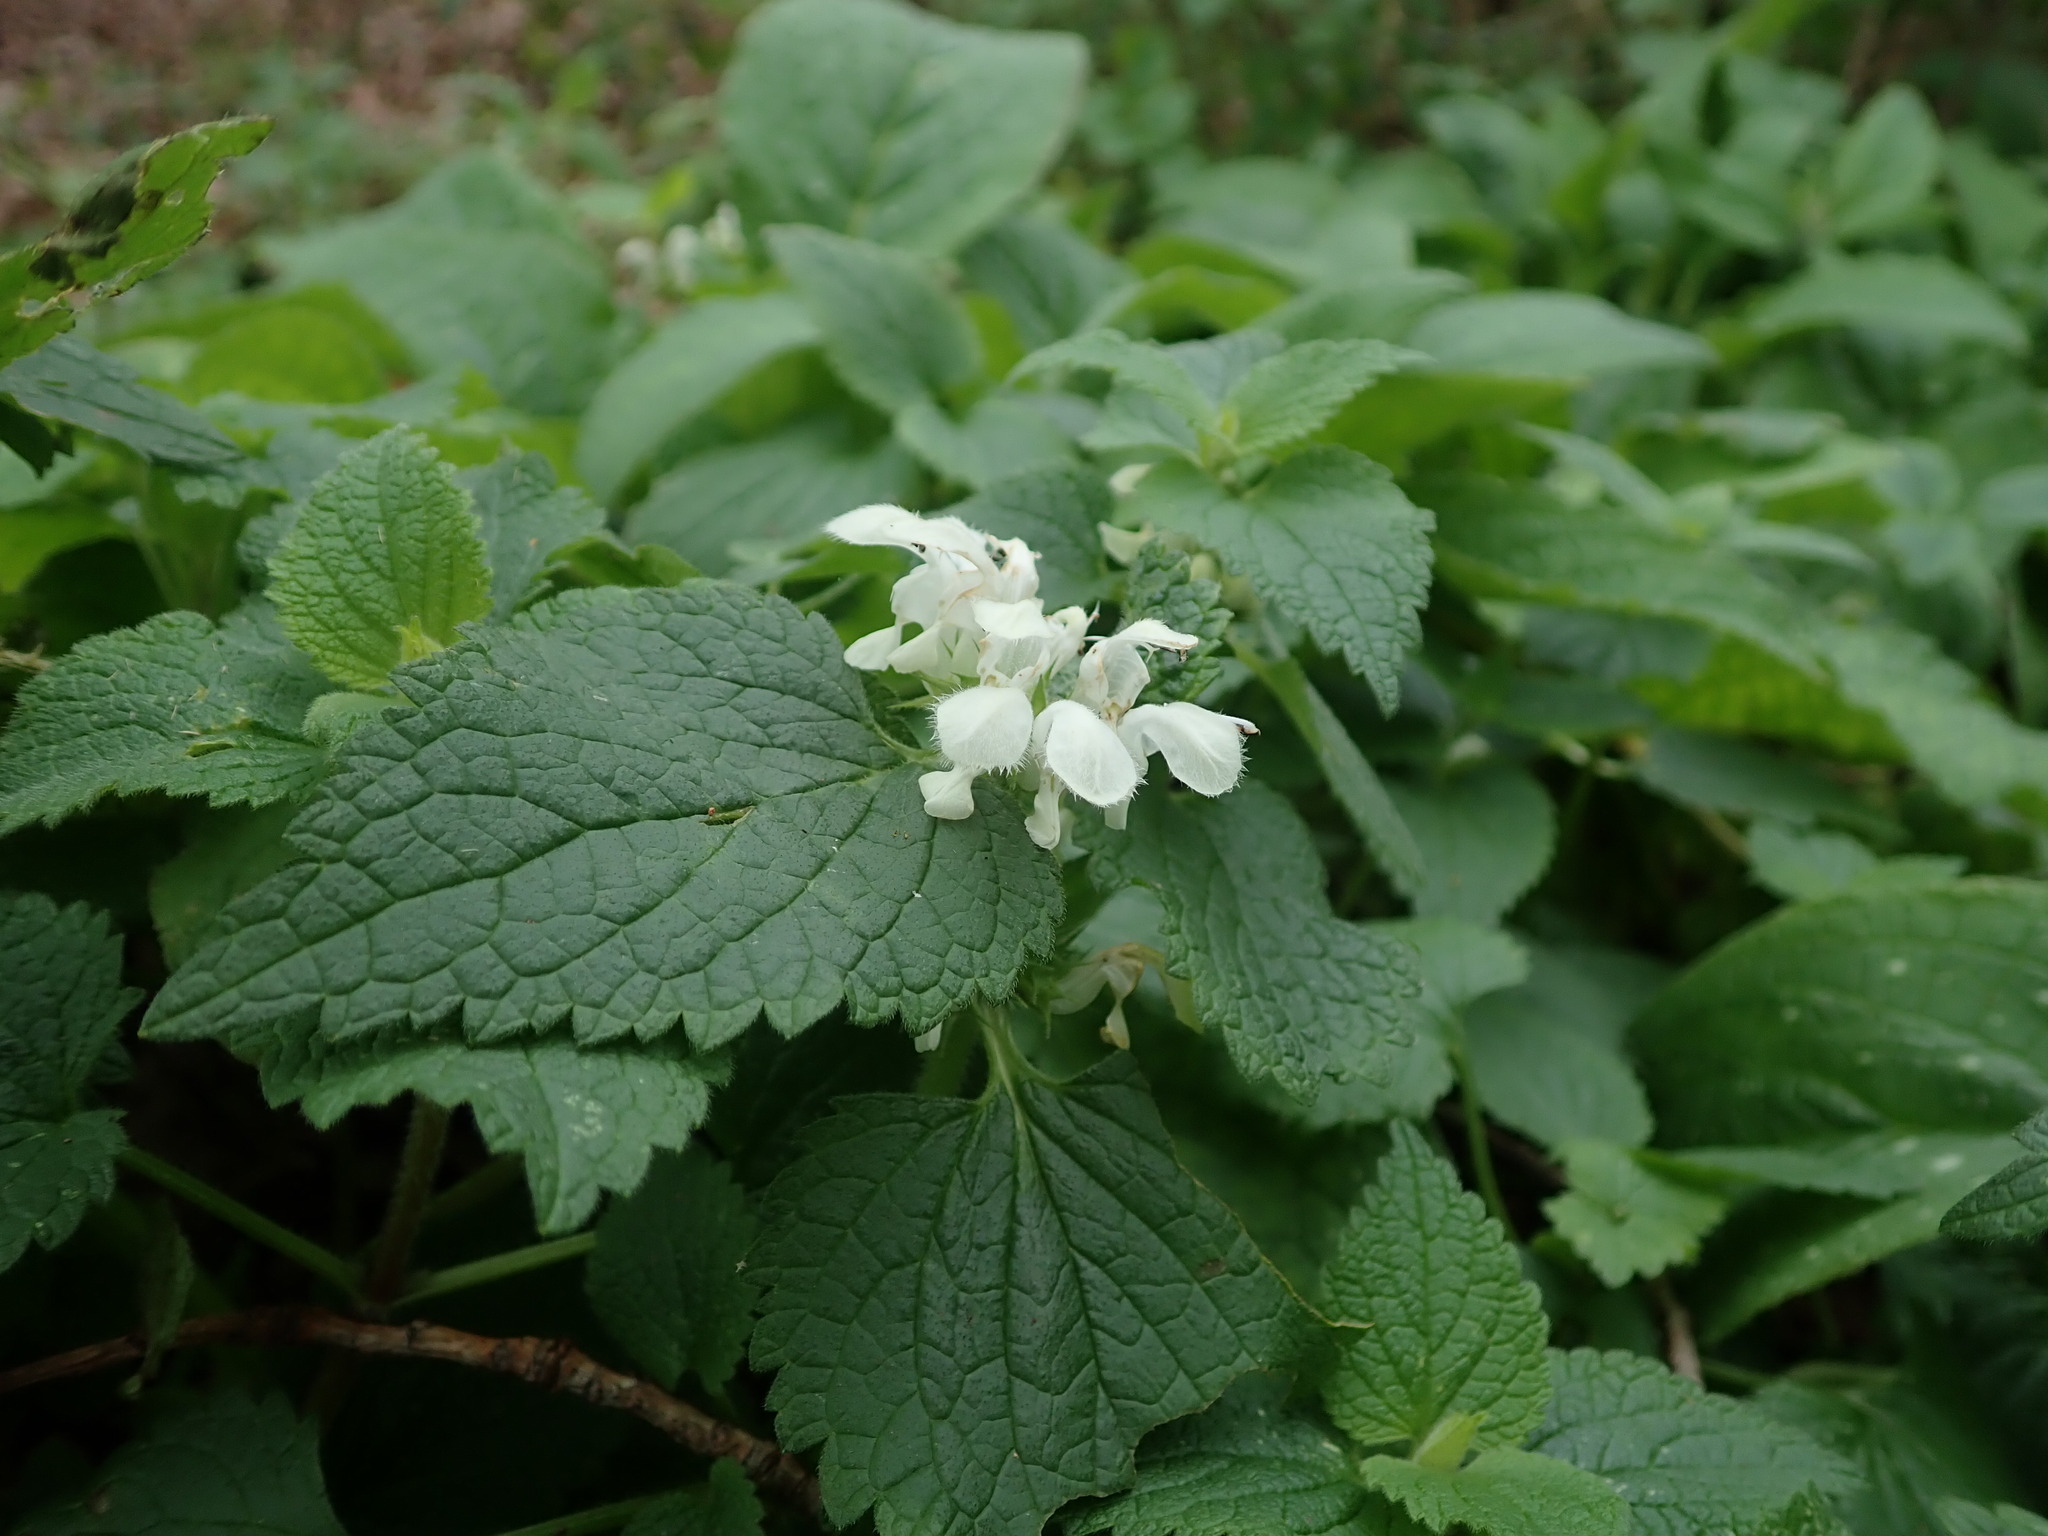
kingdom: Plantae
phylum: Tracheophyta
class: Magnoliopsida
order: Lamiales
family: Lamiaceae
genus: Lamium
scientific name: Lamium album
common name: White dead-nettle
